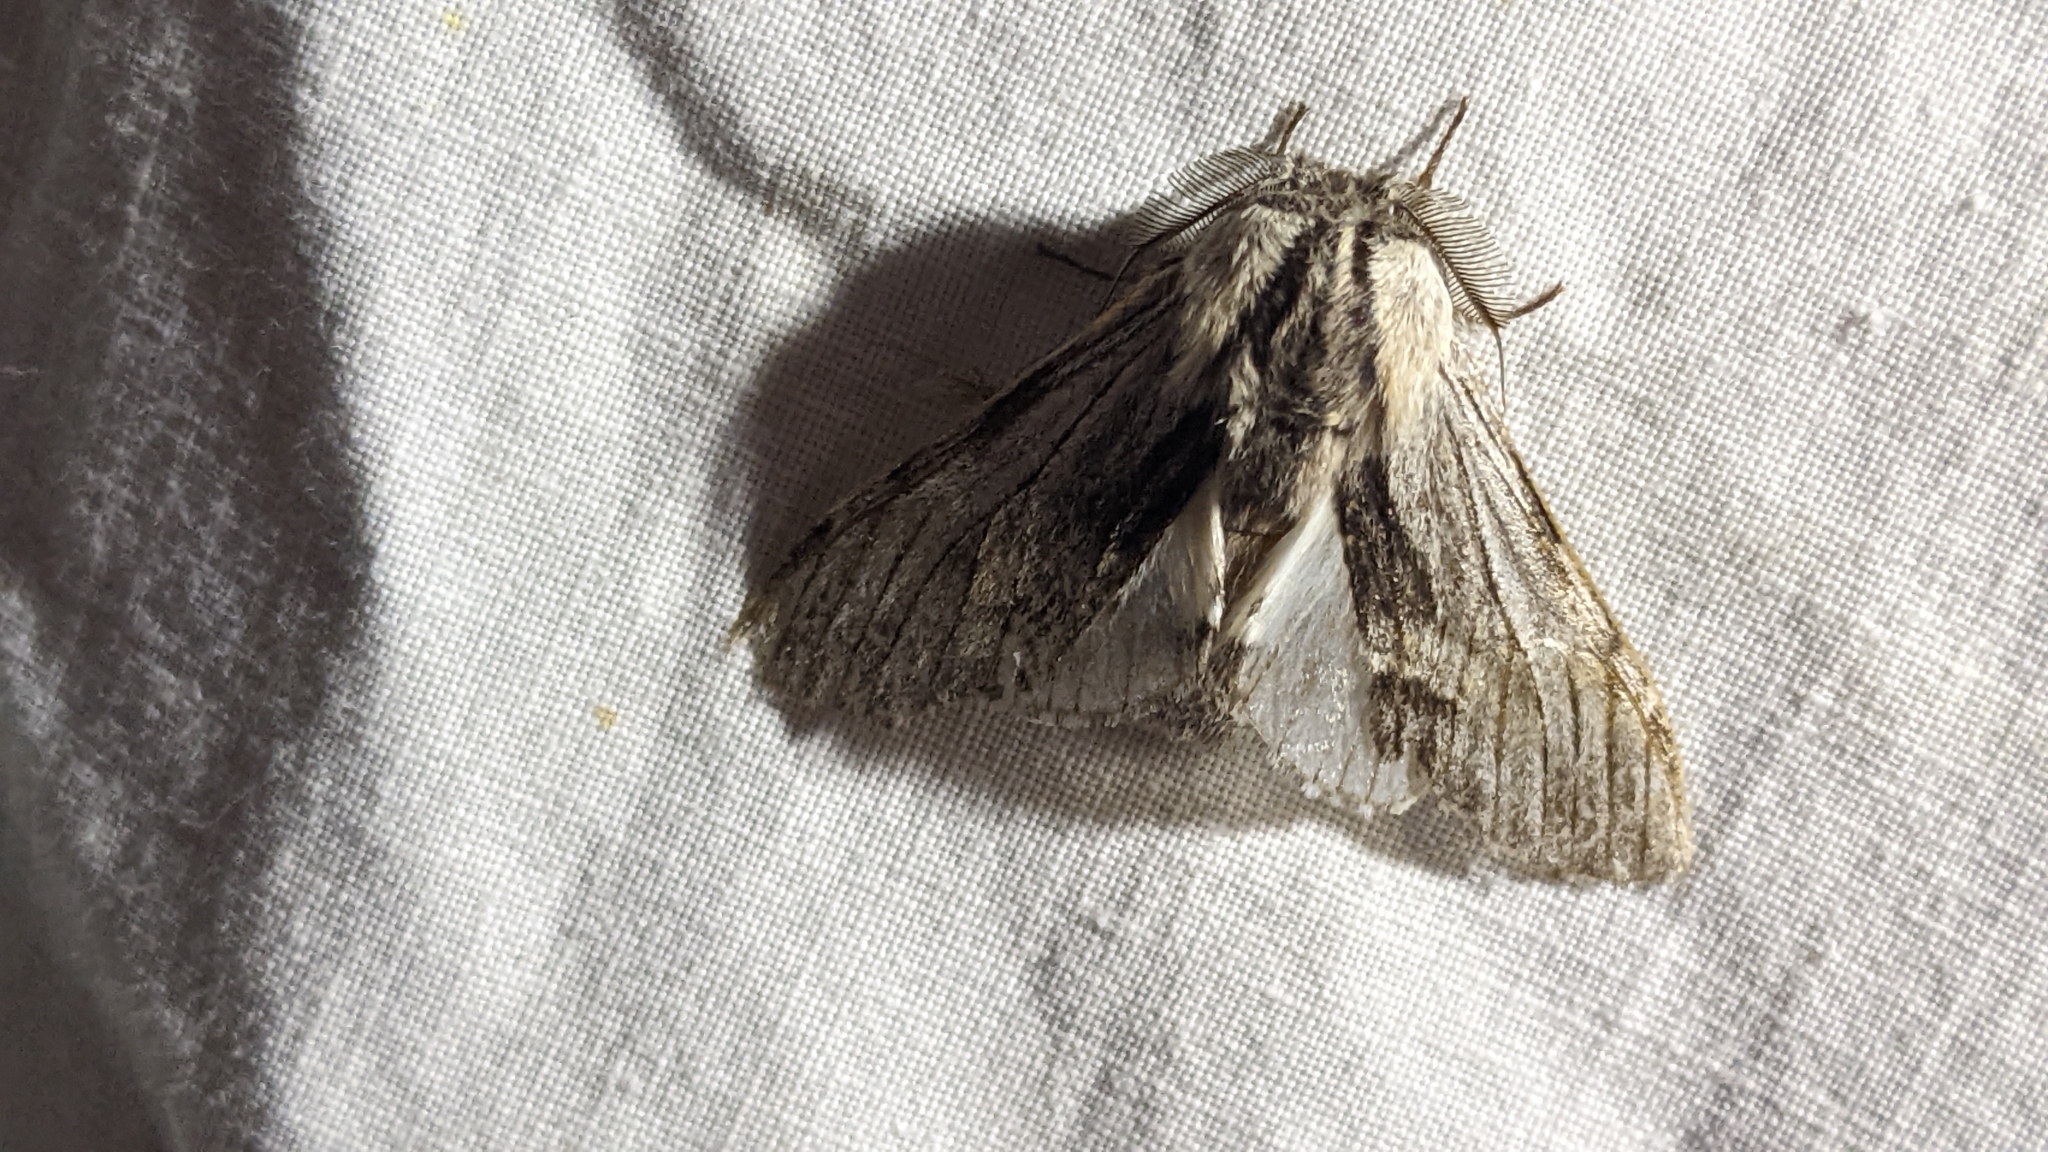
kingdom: Animalia
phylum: Arthropoda
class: Insecta
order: Lepidoptera
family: Notodontidae
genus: Harpyia
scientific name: Harpyia milhauseri
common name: Tawny prominent
